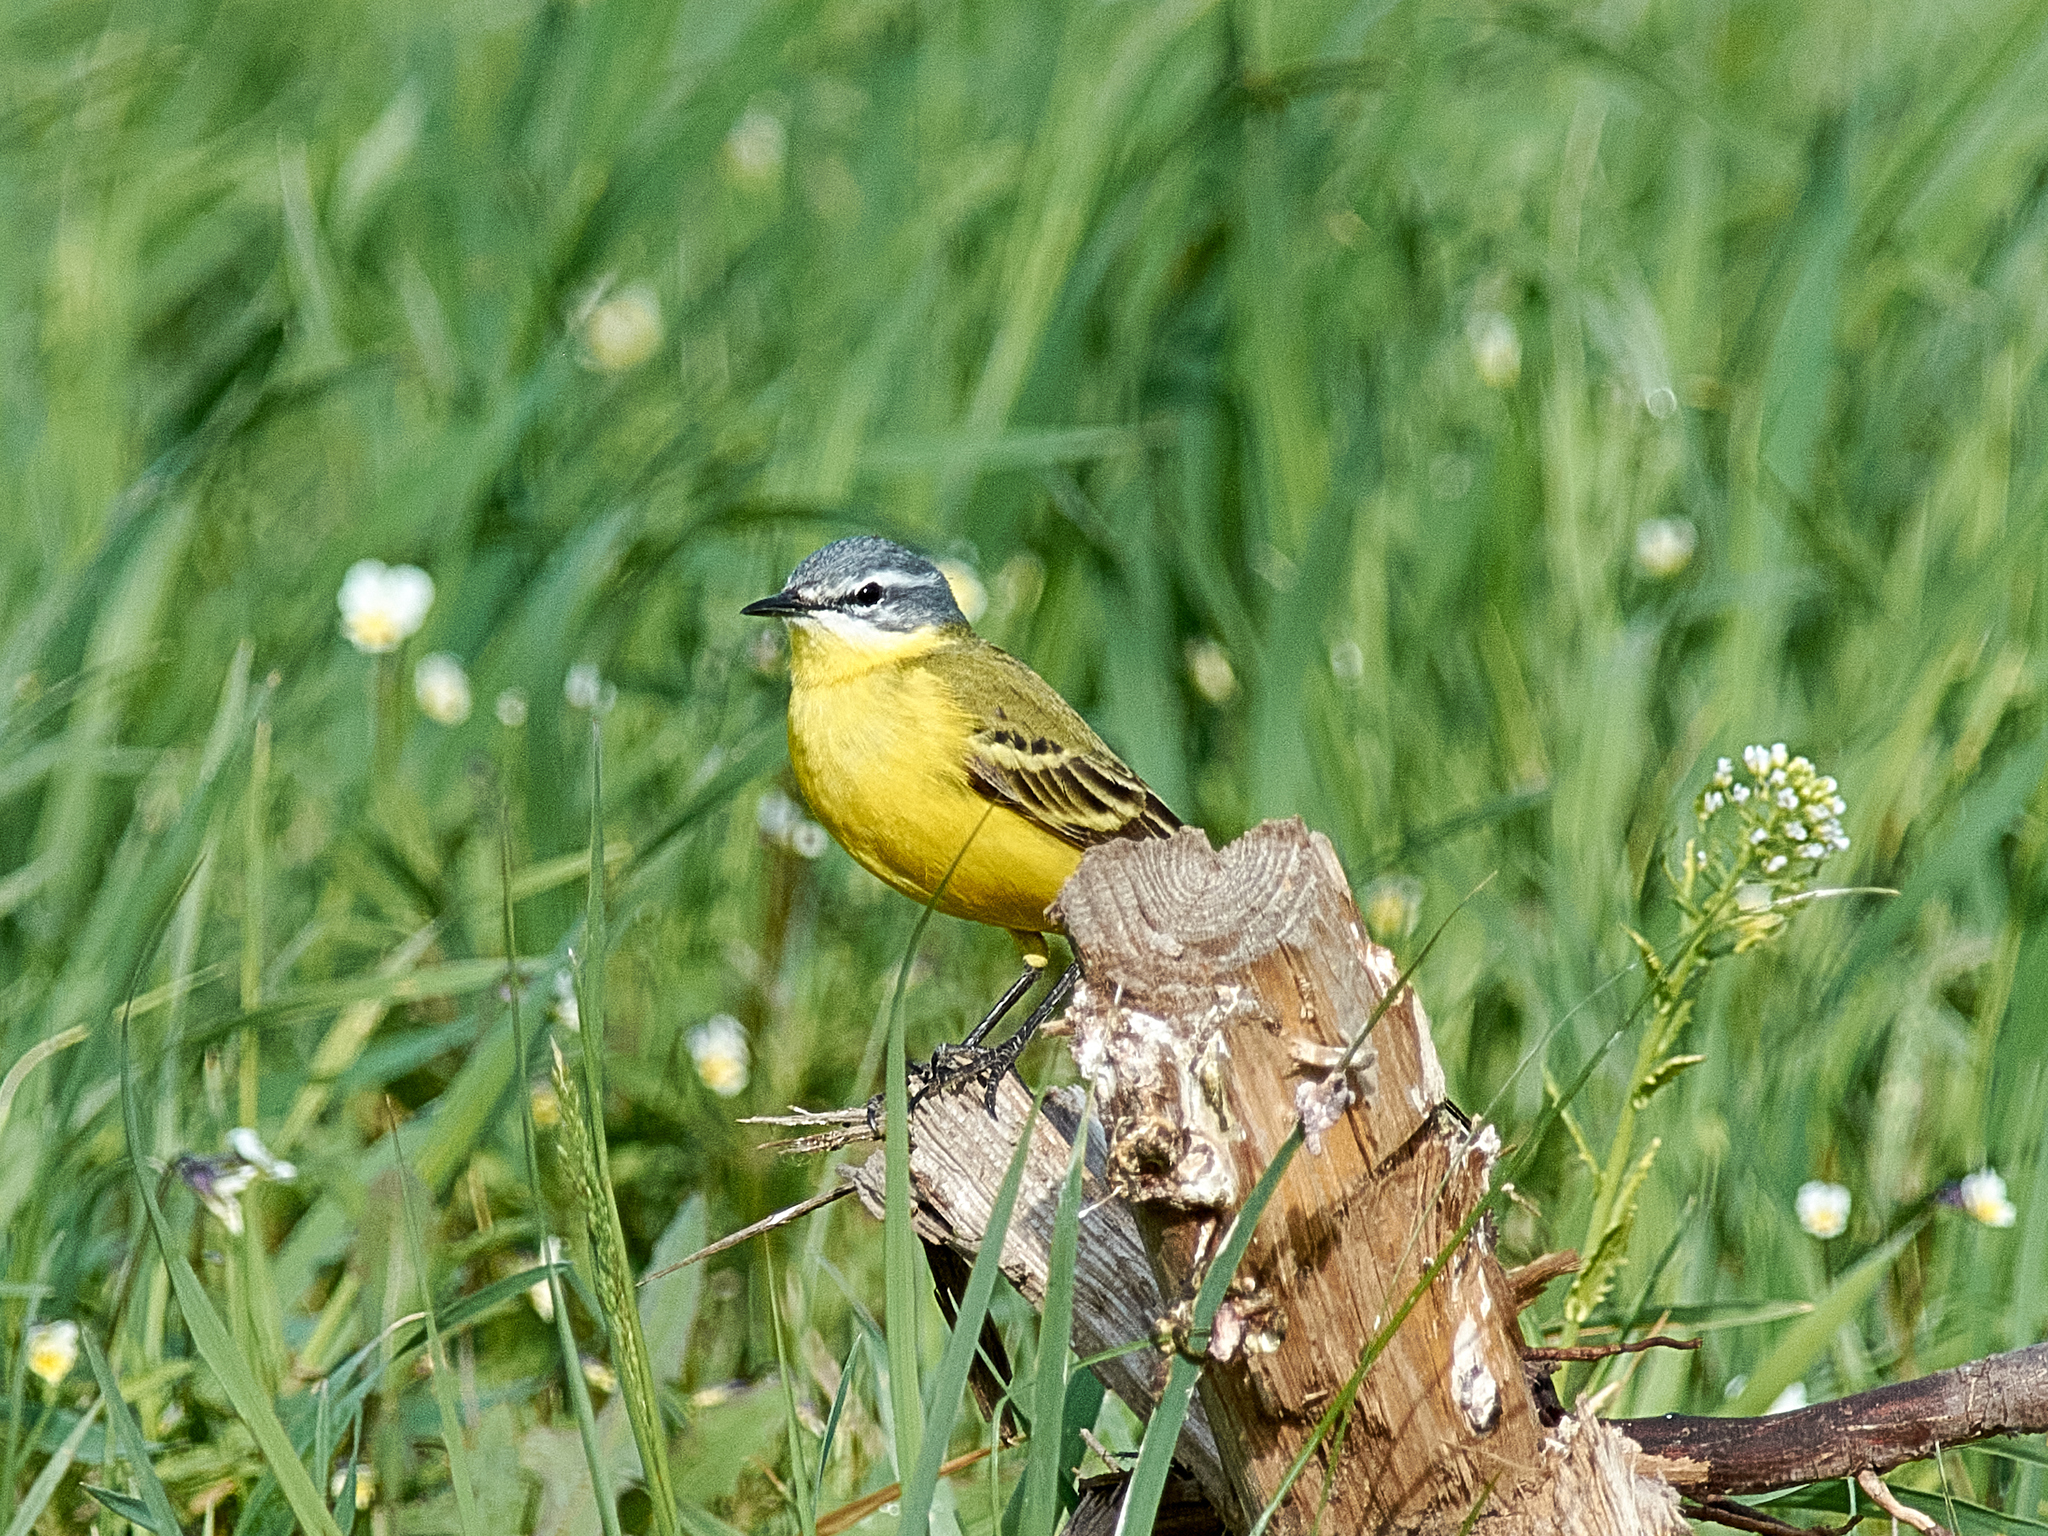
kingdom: Animalia
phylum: Chordata
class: Aves
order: Passeriformes
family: Motacillidae
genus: Motacilla
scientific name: Motacilla flava
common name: Western yellow wagtail
